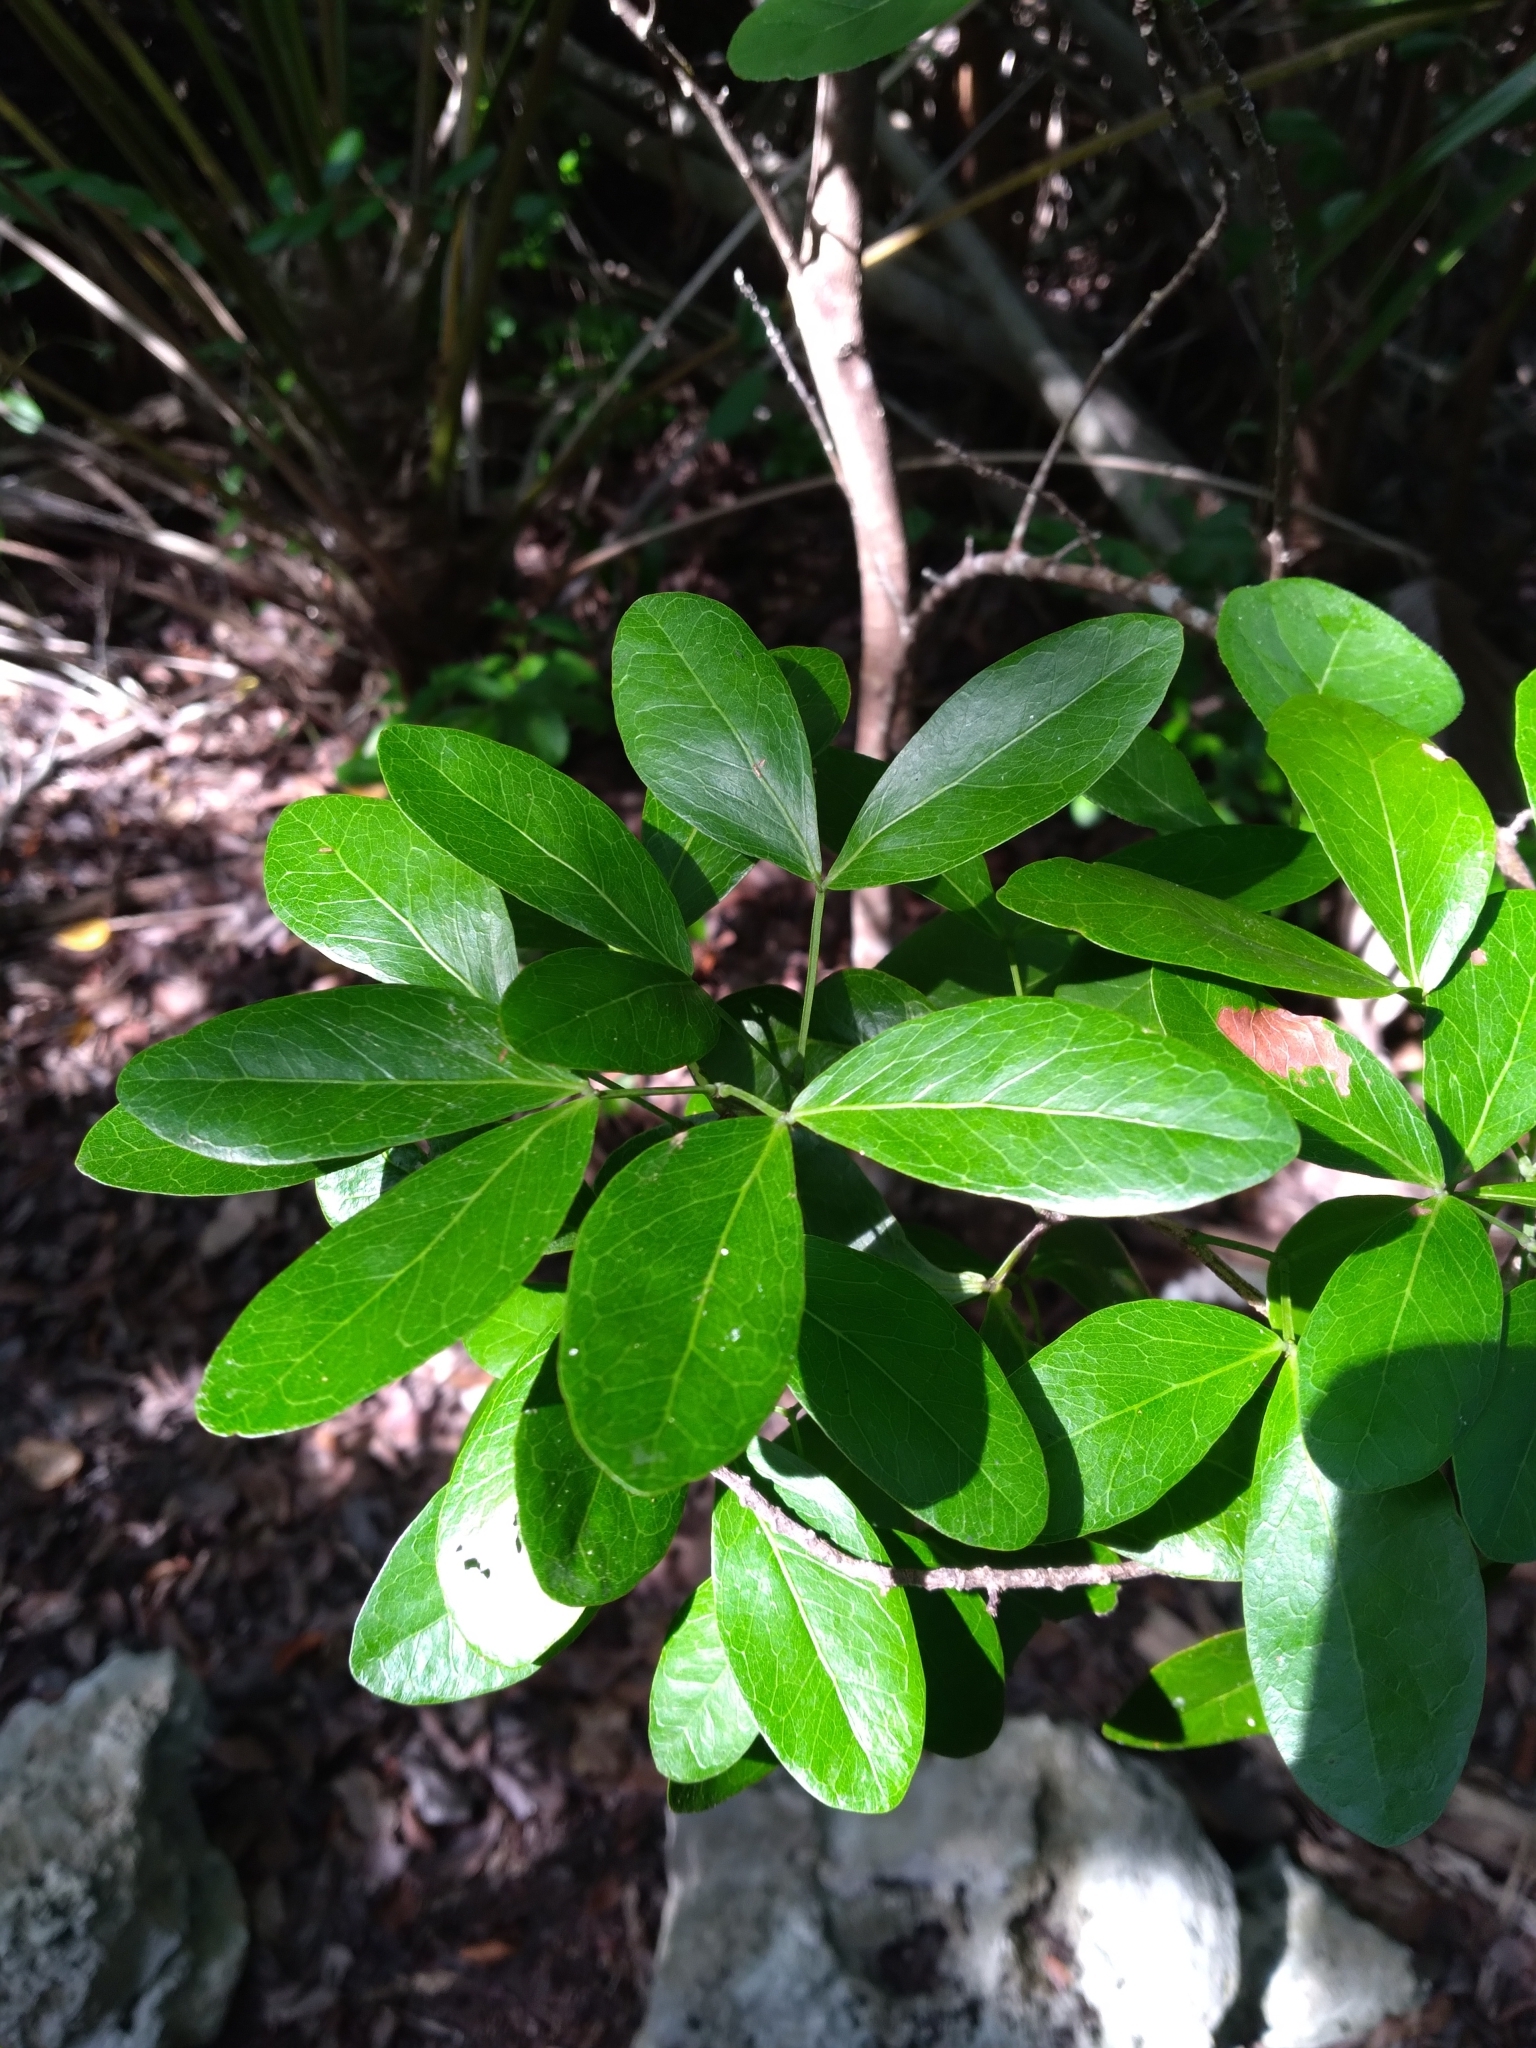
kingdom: Plantae
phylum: Tracheophyta
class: Magnoliopsida
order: Fabales
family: Fabaceae
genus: Pithecellobium
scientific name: Pithecellobium keyense
